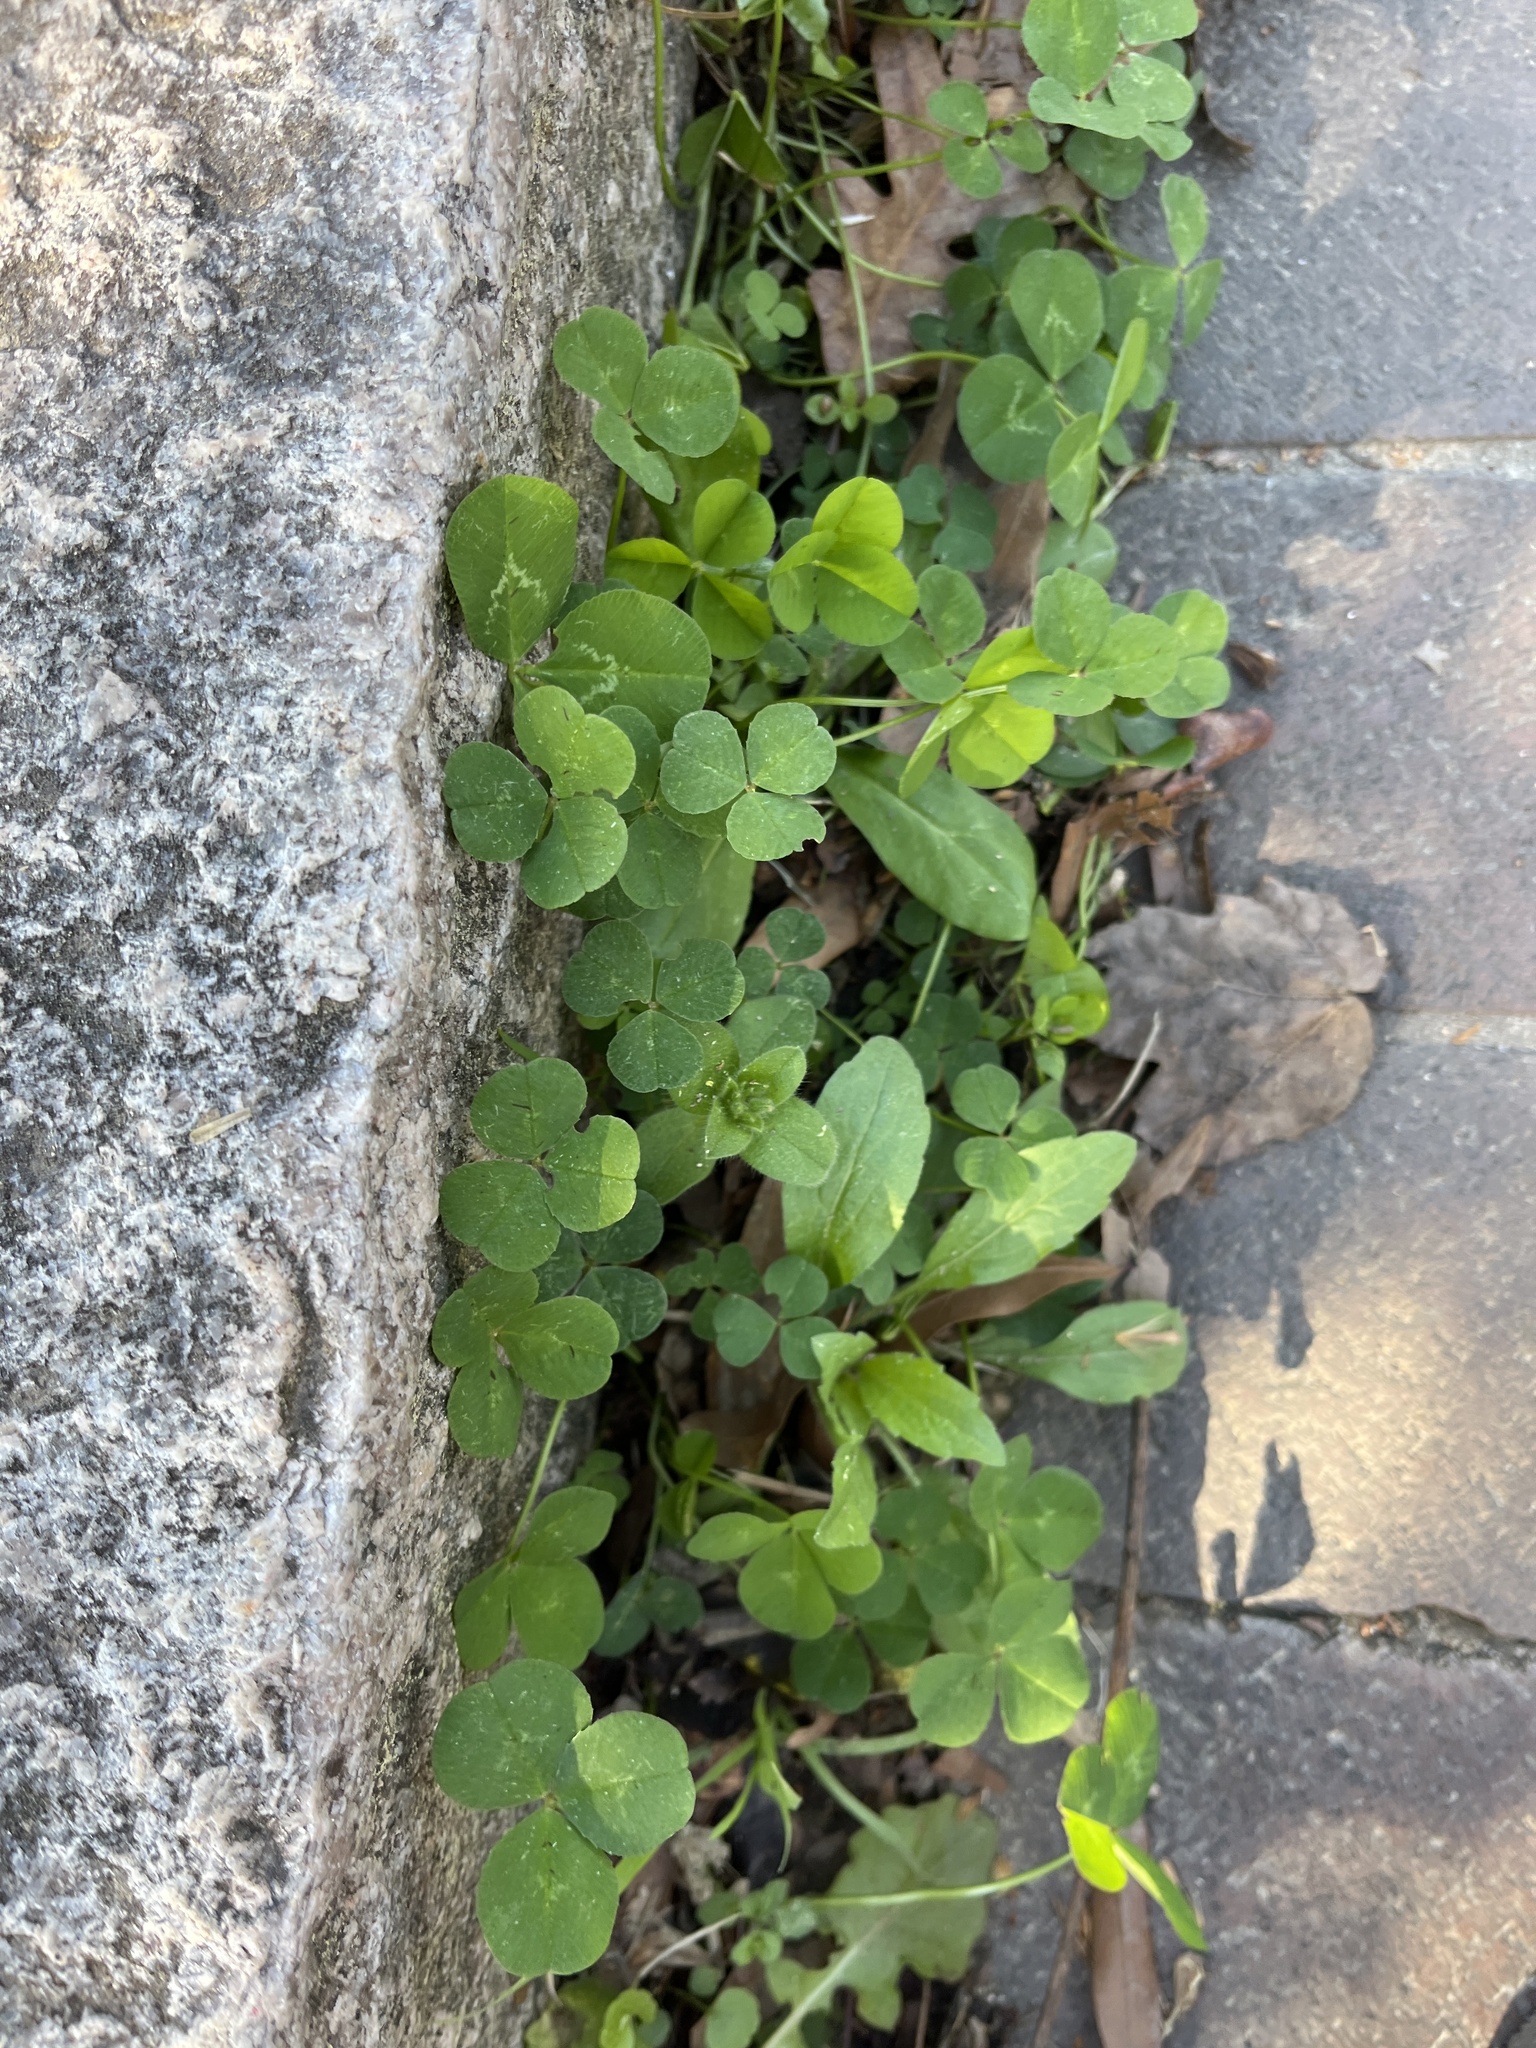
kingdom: Plantae
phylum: Tracheophyta
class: Magnoliopsida
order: Fabales
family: Fabaceae
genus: Trifolium
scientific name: Trifolium repens
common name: White clover
